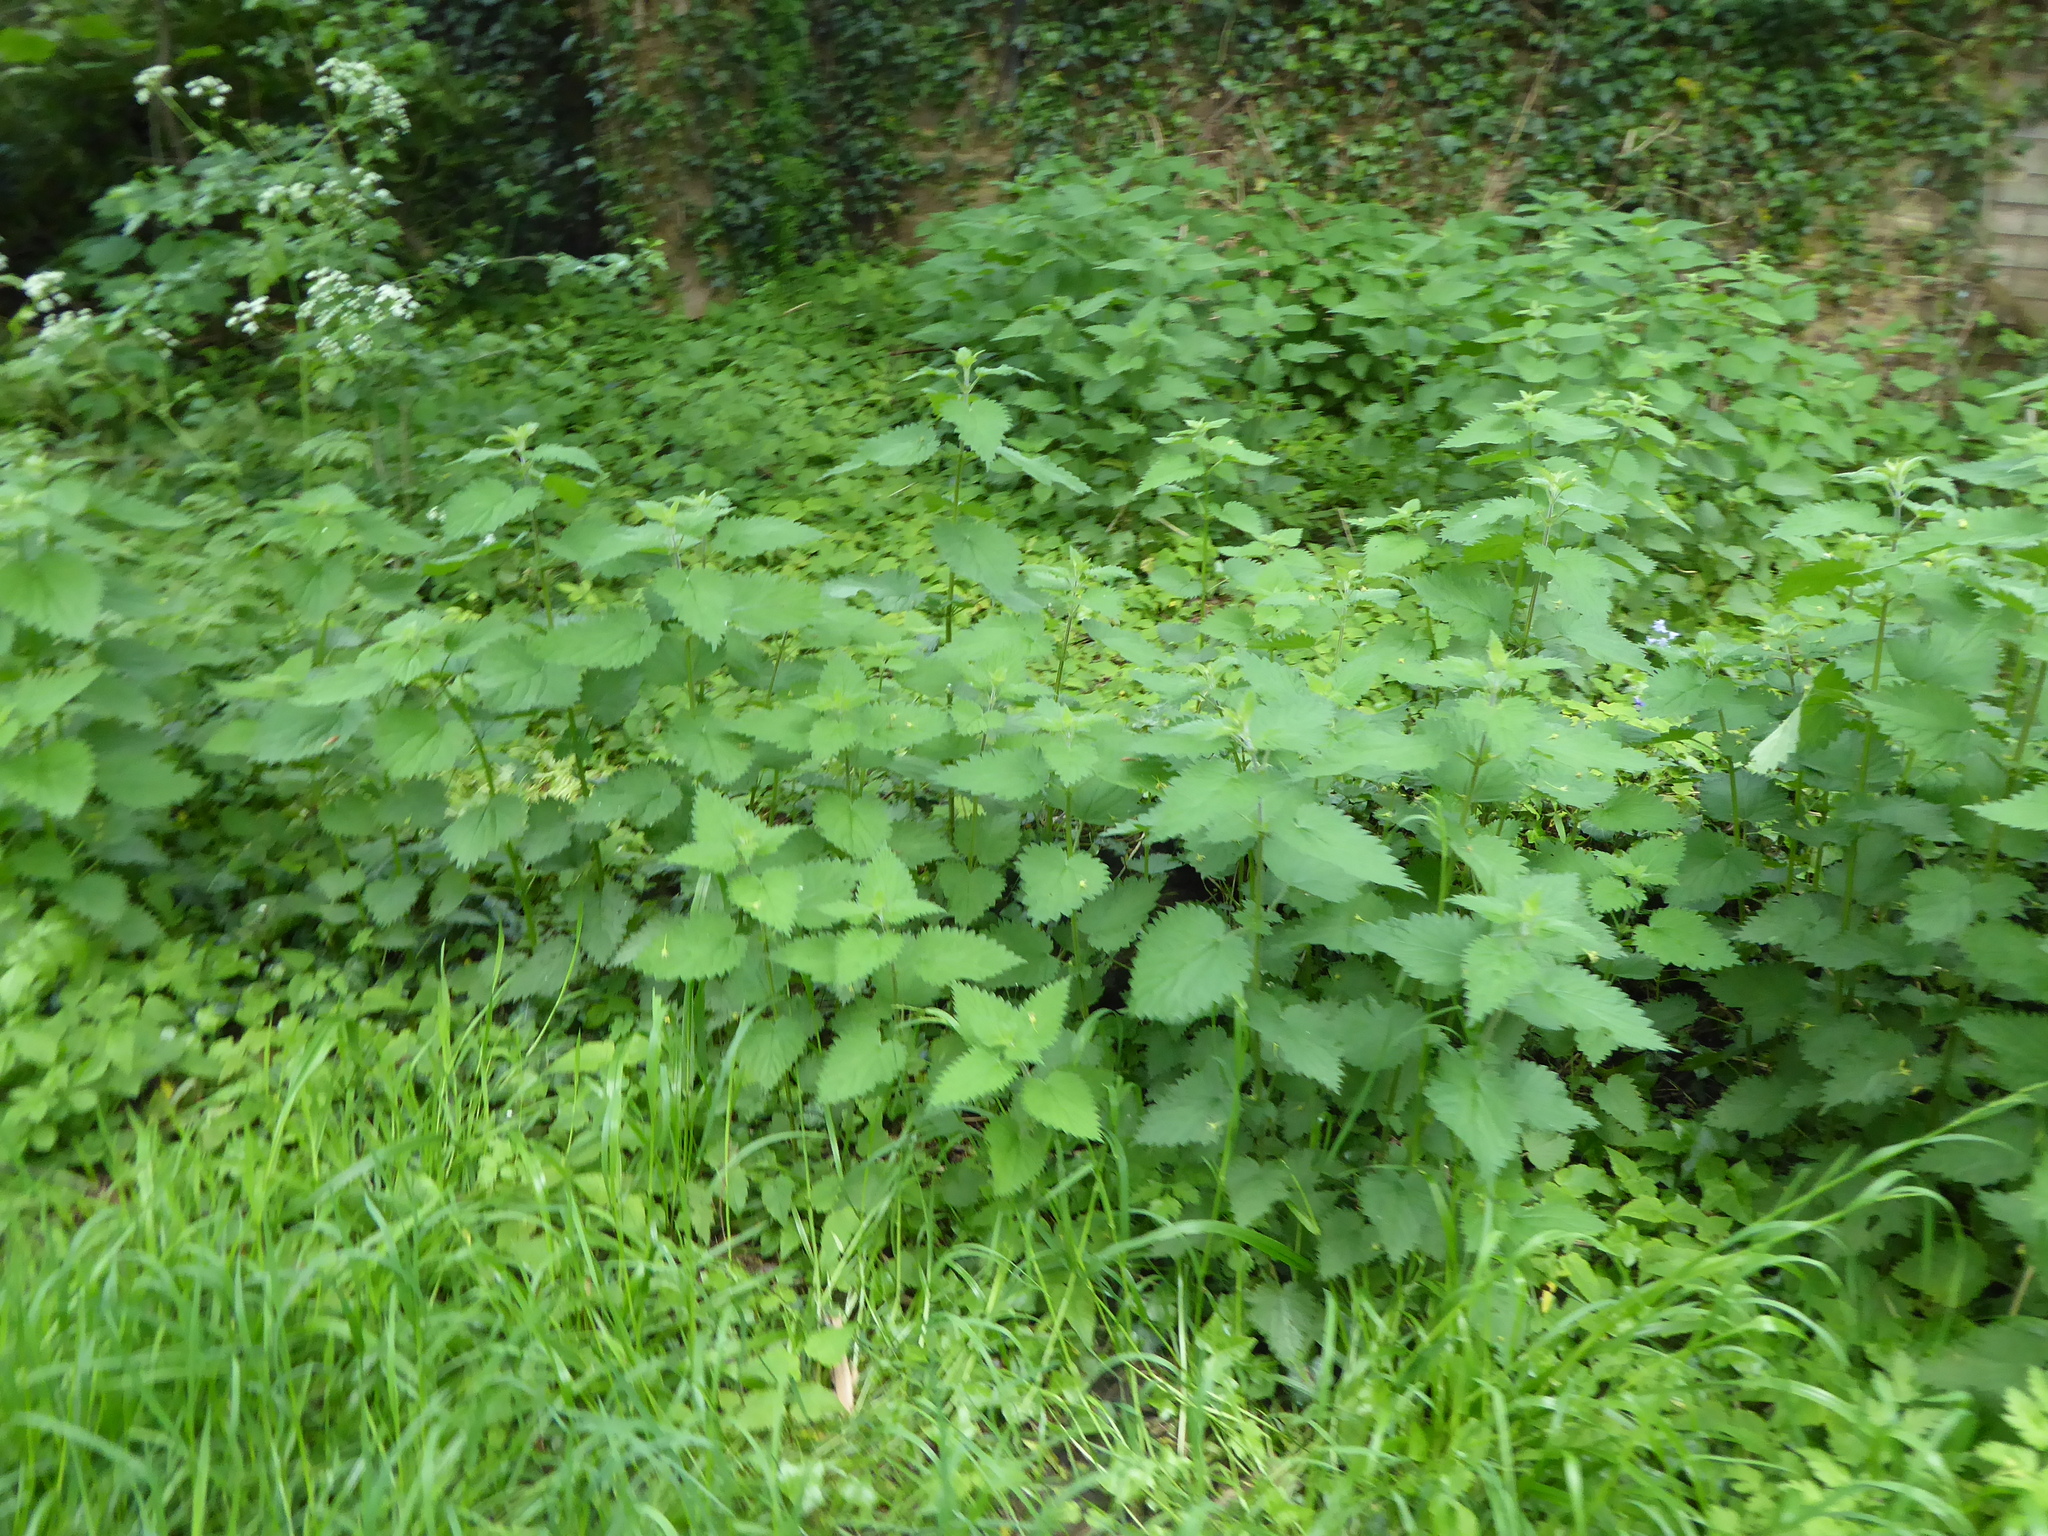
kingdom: Plantae
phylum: Tracheophyta
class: Magnoliopsida
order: Rosales
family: Urticaceae
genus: Urtica
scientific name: Urtica dioica
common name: Common nettle
